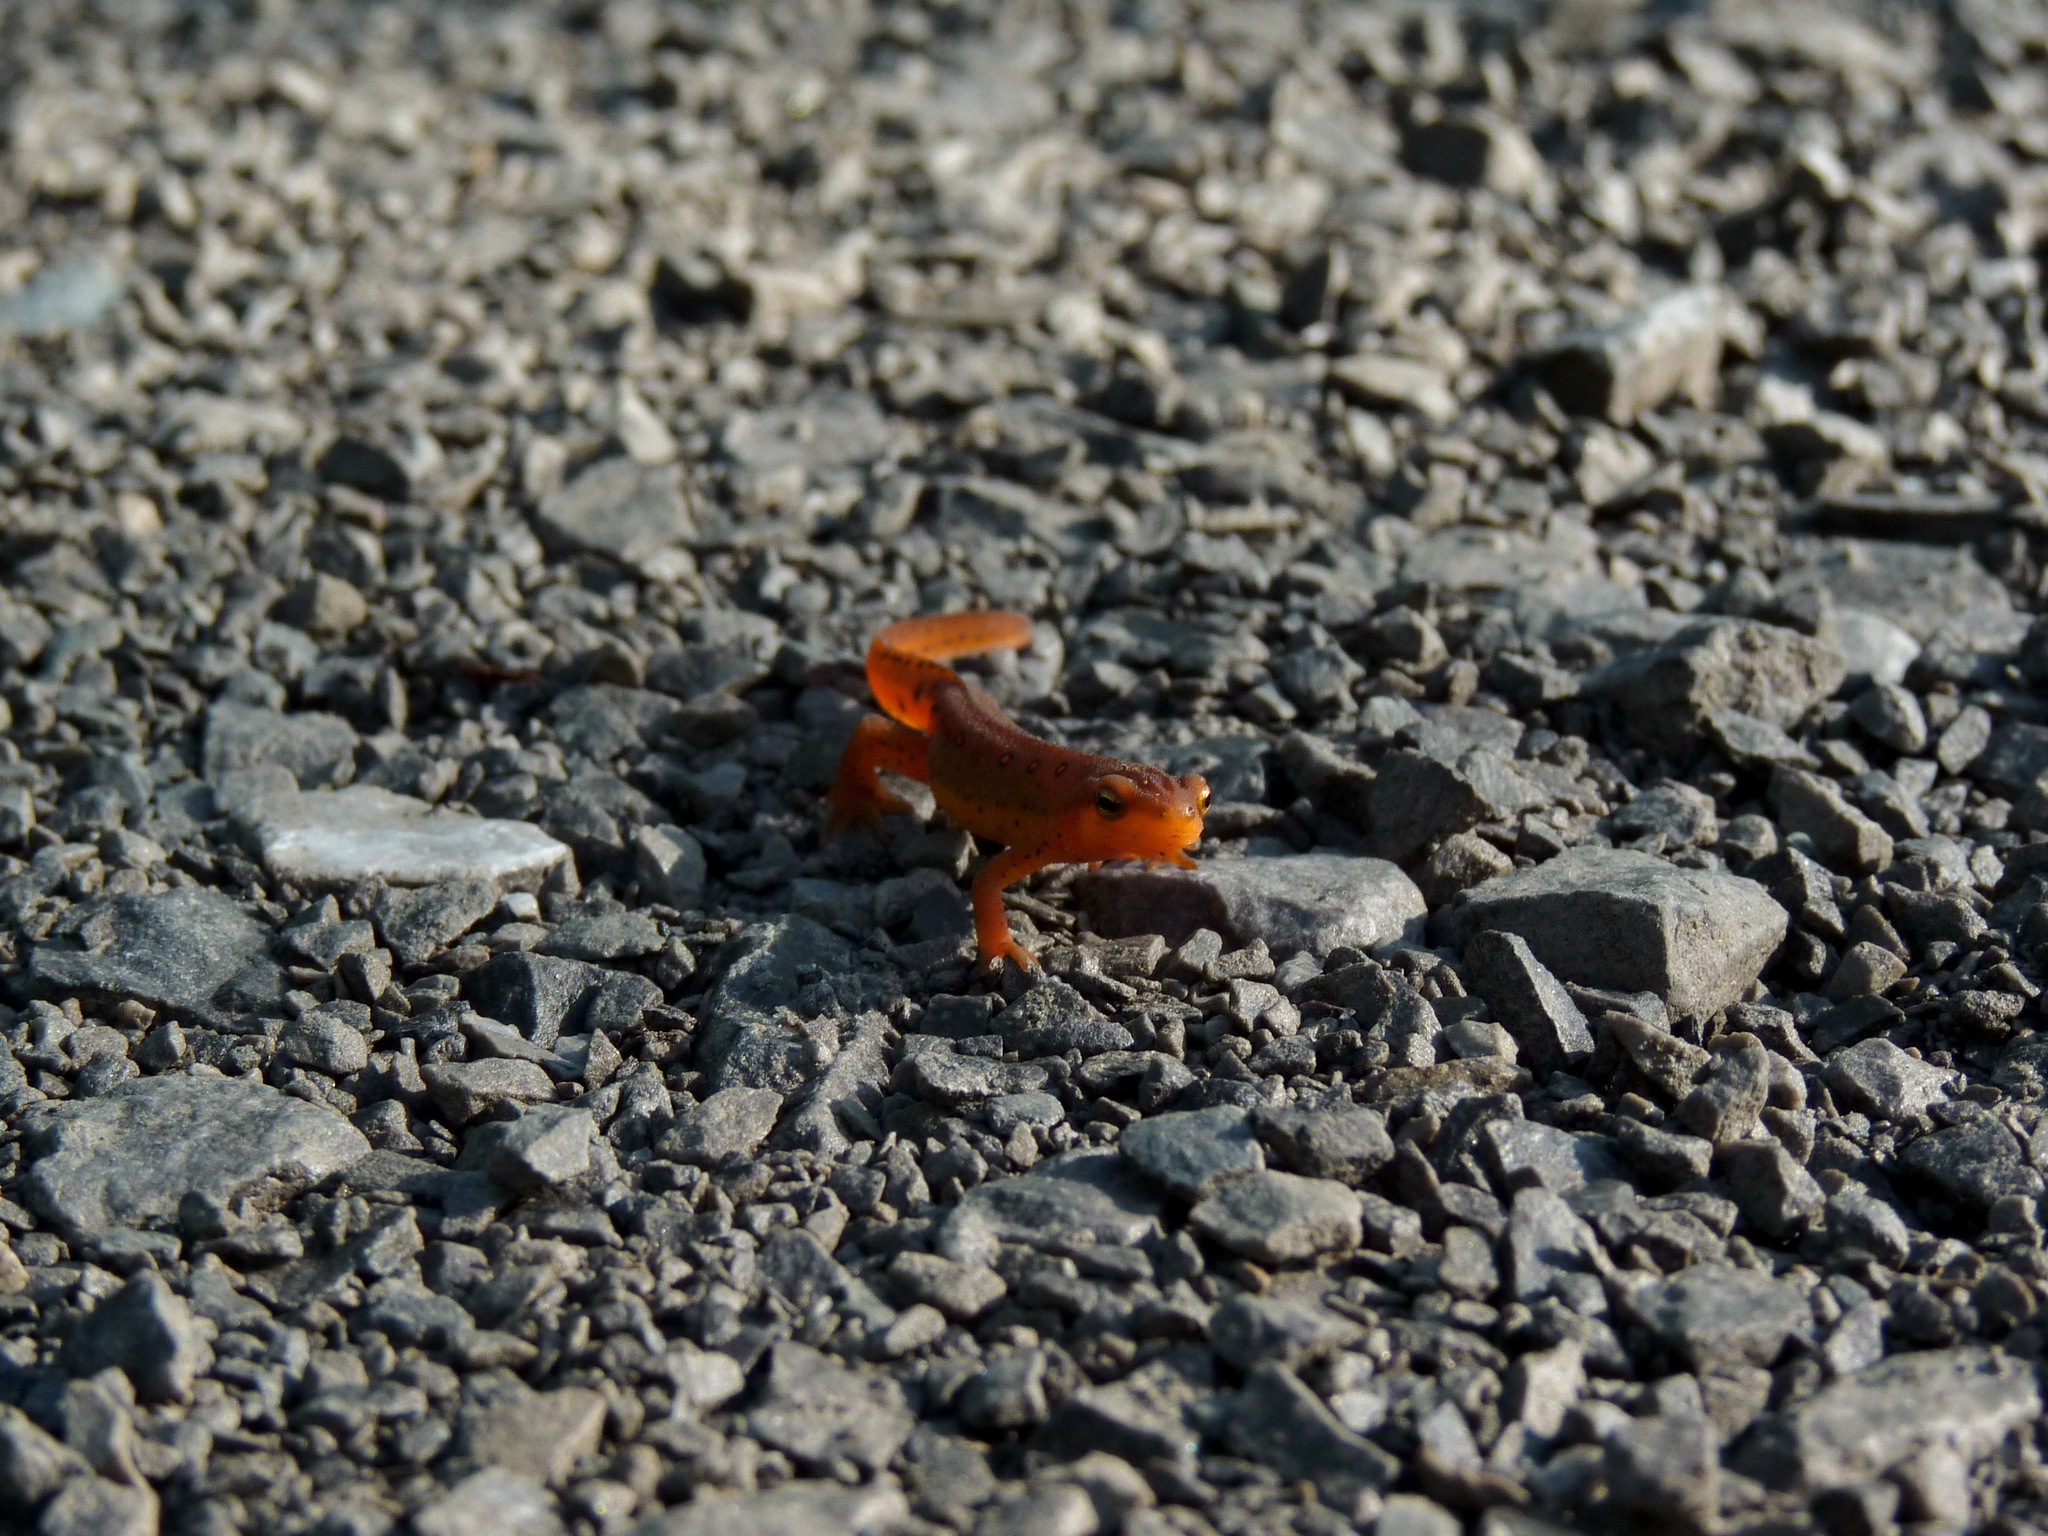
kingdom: Animalia
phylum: Chordata
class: Amphibia
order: Caudata
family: Salamandridae
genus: Notophthalmus
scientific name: Notophthalmus viridescens
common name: Eastern newt
